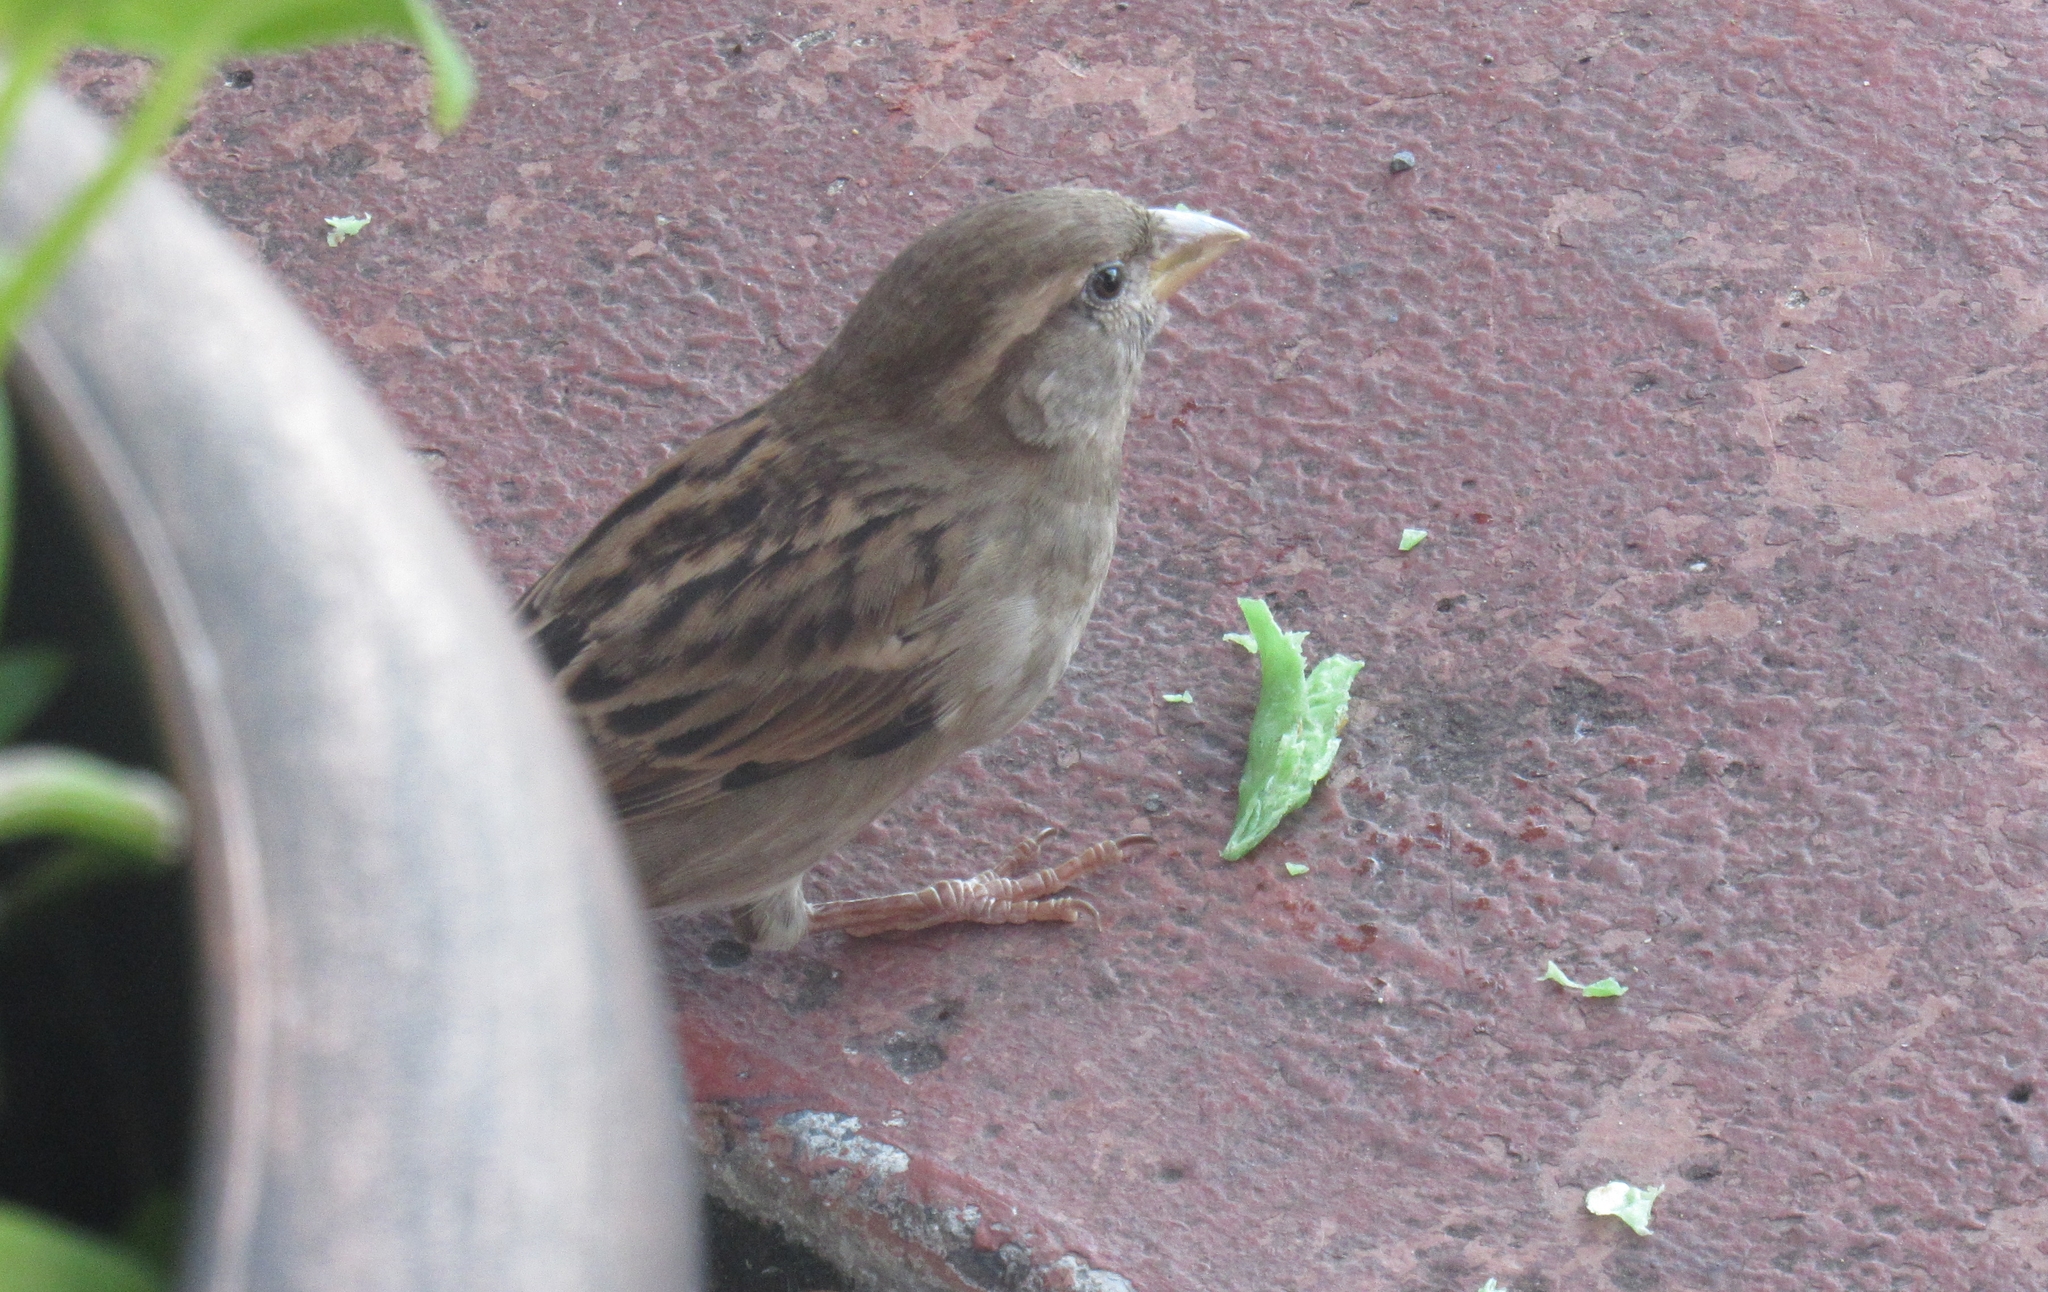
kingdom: Animalia
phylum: Chordata
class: Aves
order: Passeriformes
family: Passeridae
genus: Passer
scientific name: Passer domesticus
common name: House sparrow
